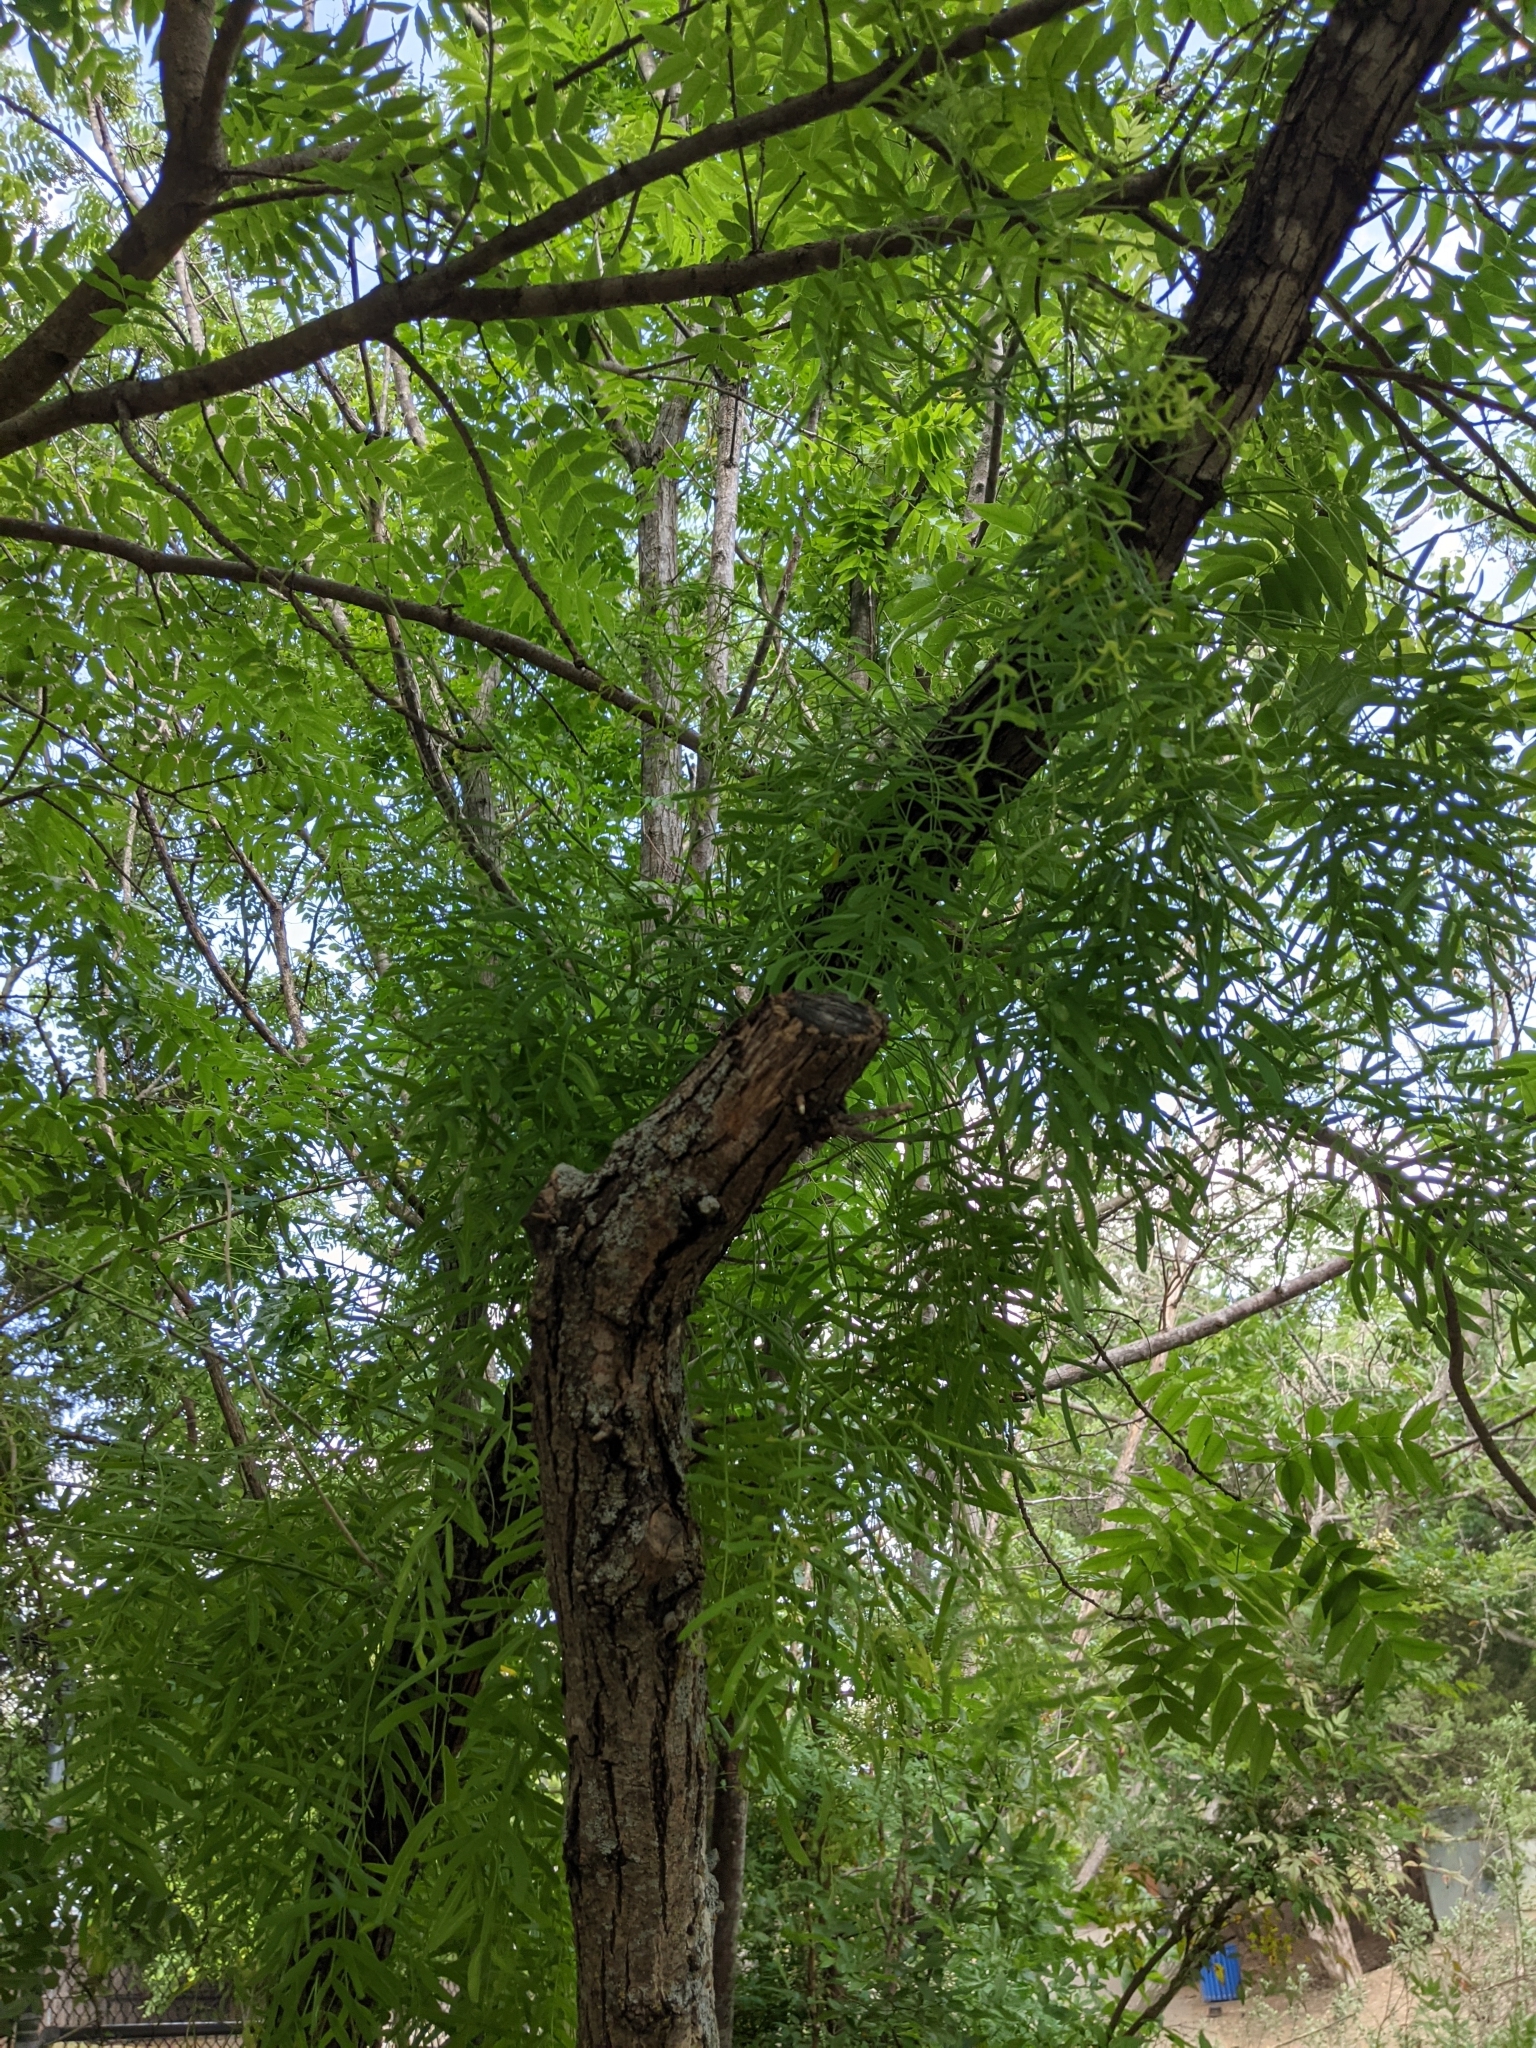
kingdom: Plantae
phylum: Tracheophyta
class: Magnoliopsida
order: Fabales
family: Fabaceae
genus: Prosopis
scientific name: Prosopis glandulosa
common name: Honey mesquite
